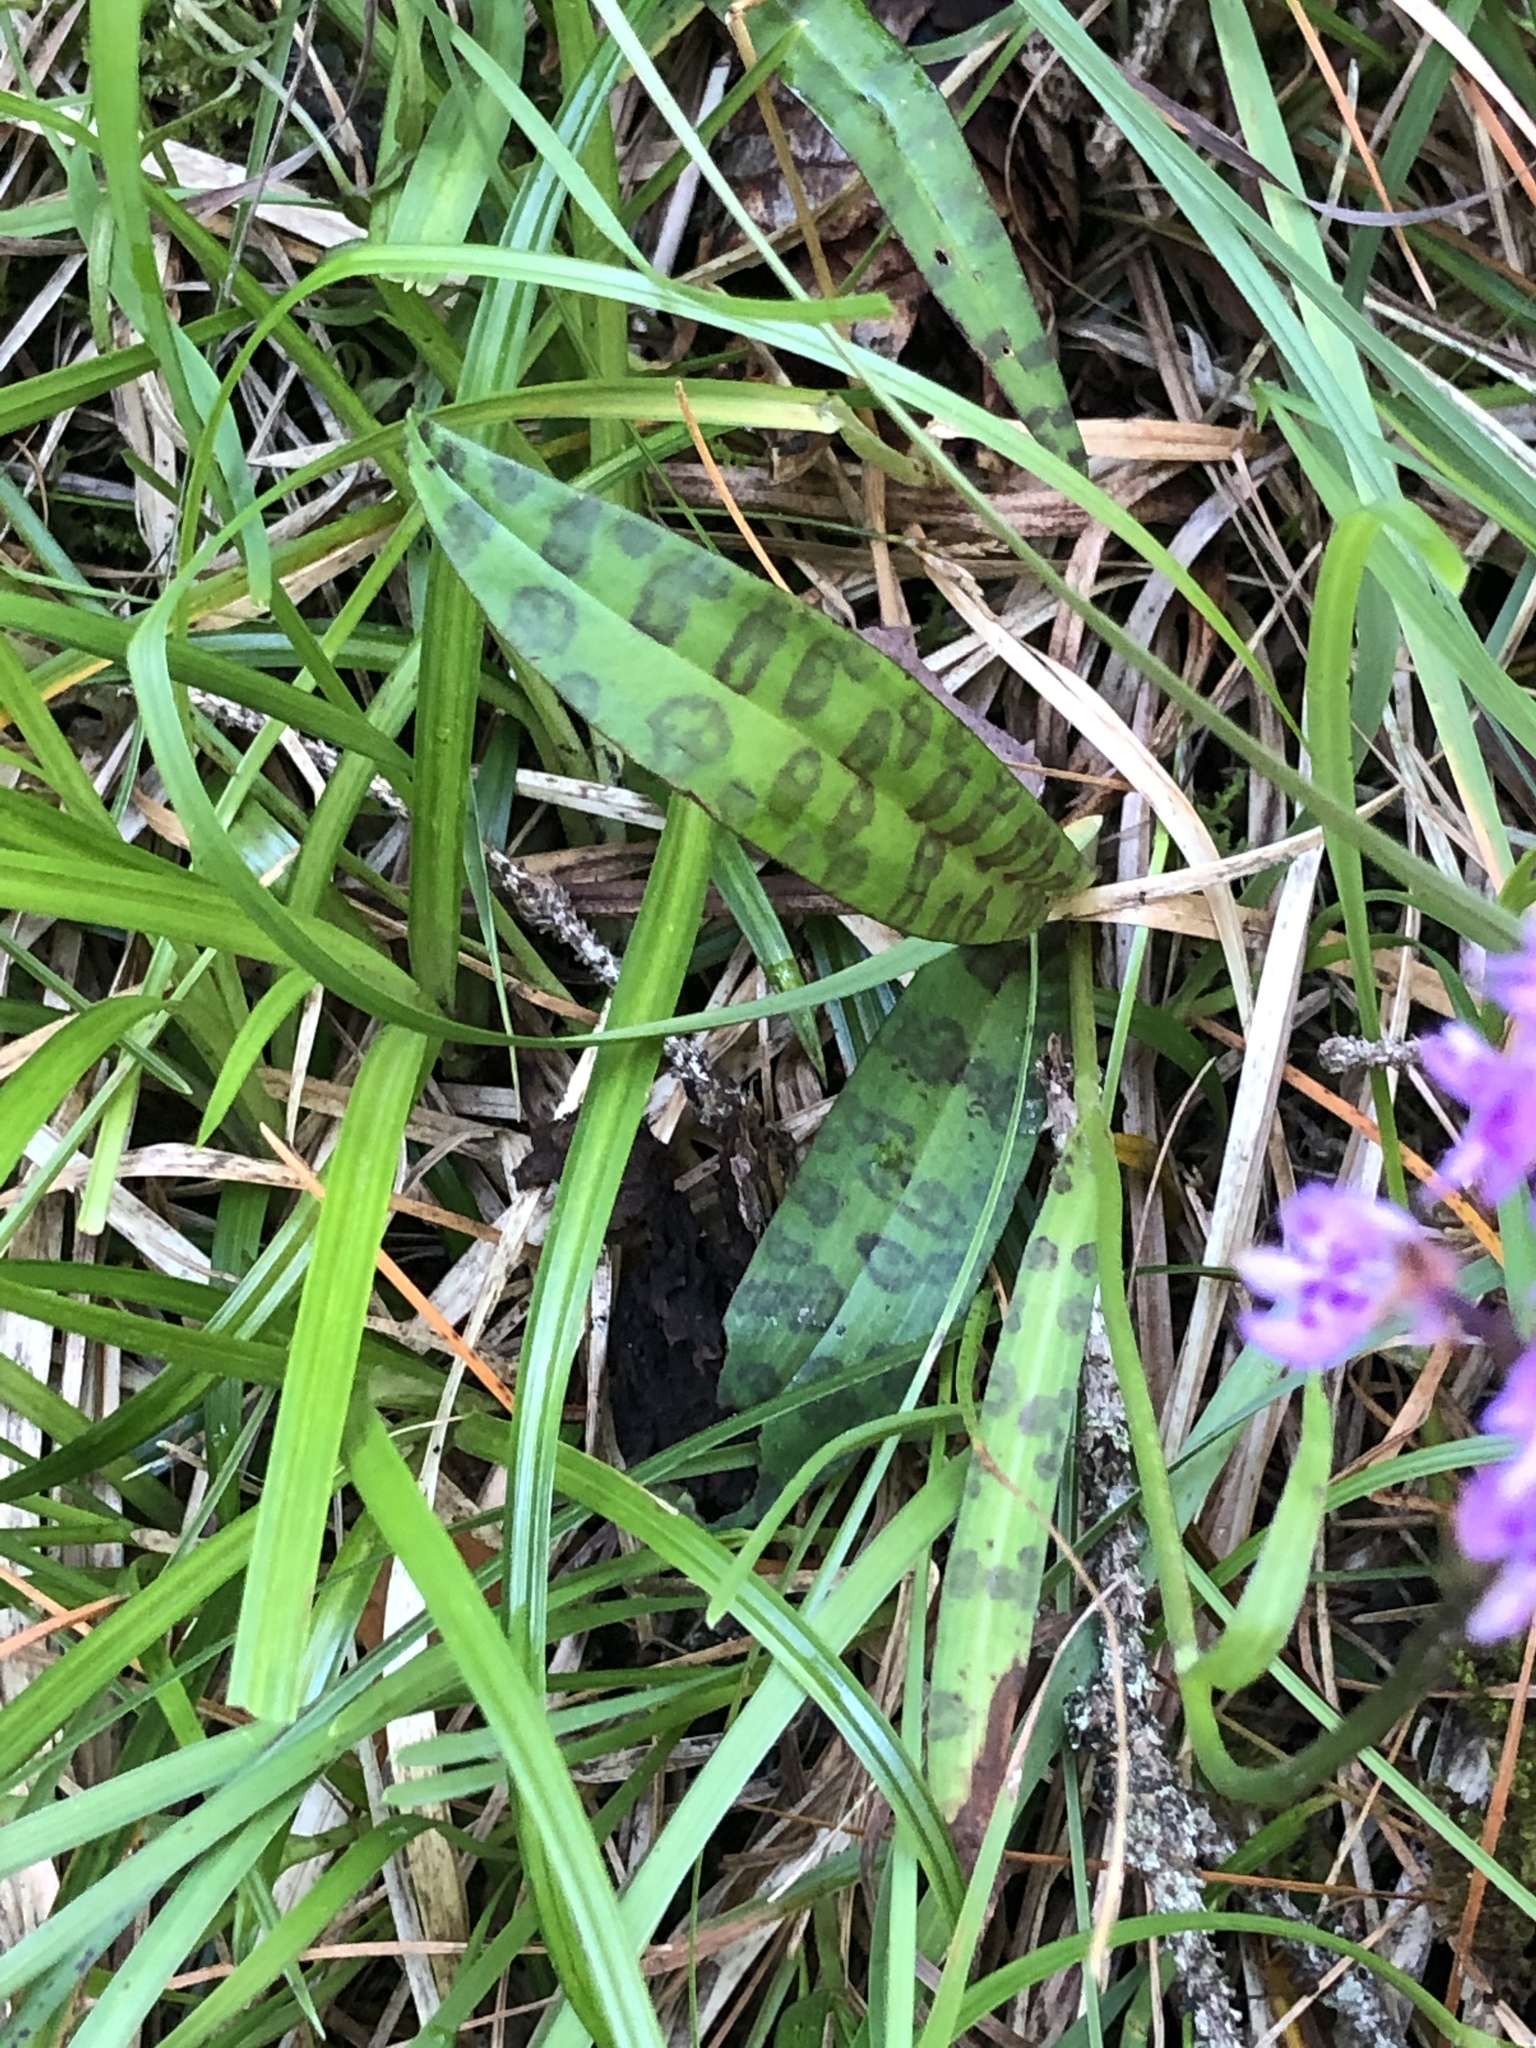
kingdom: Plantae
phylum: Tracheophyta
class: Liliopsida
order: Asparagales
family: Orchidaceae
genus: Dactylorhiza
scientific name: Dactylorhiza maculata
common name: Heath spotted-orchid
